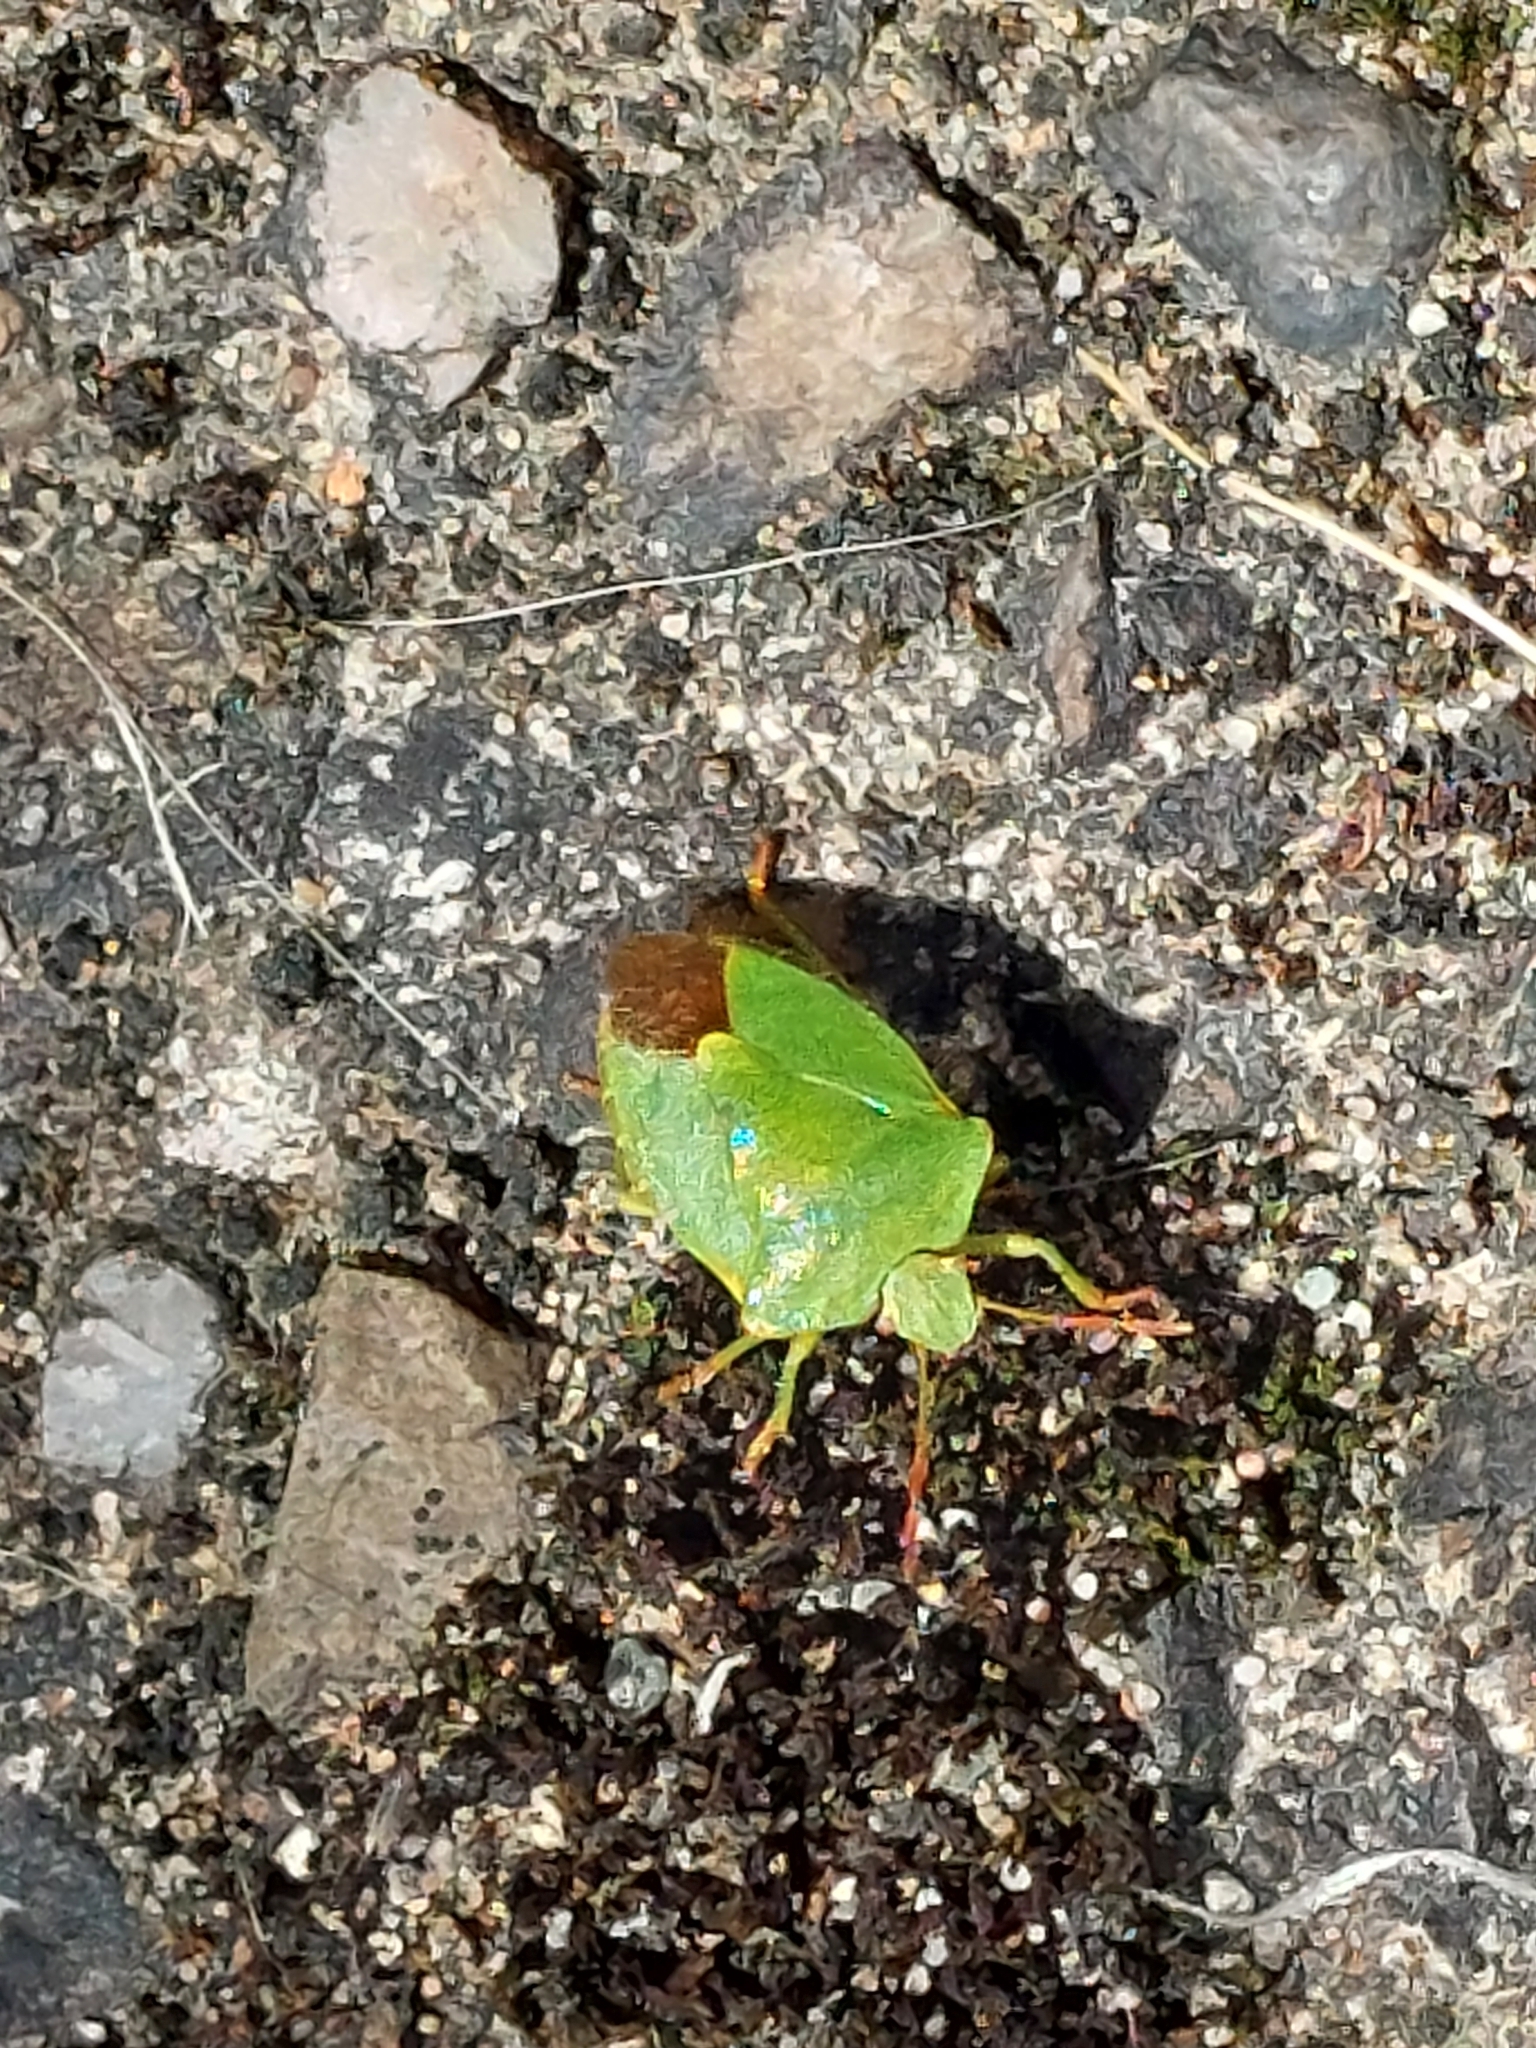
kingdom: Animalia
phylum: Arthropoda
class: Insecta
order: Hemiptera
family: Pentatomidae
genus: Palomena
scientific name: Palomena prasina
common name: Green shieldbug
